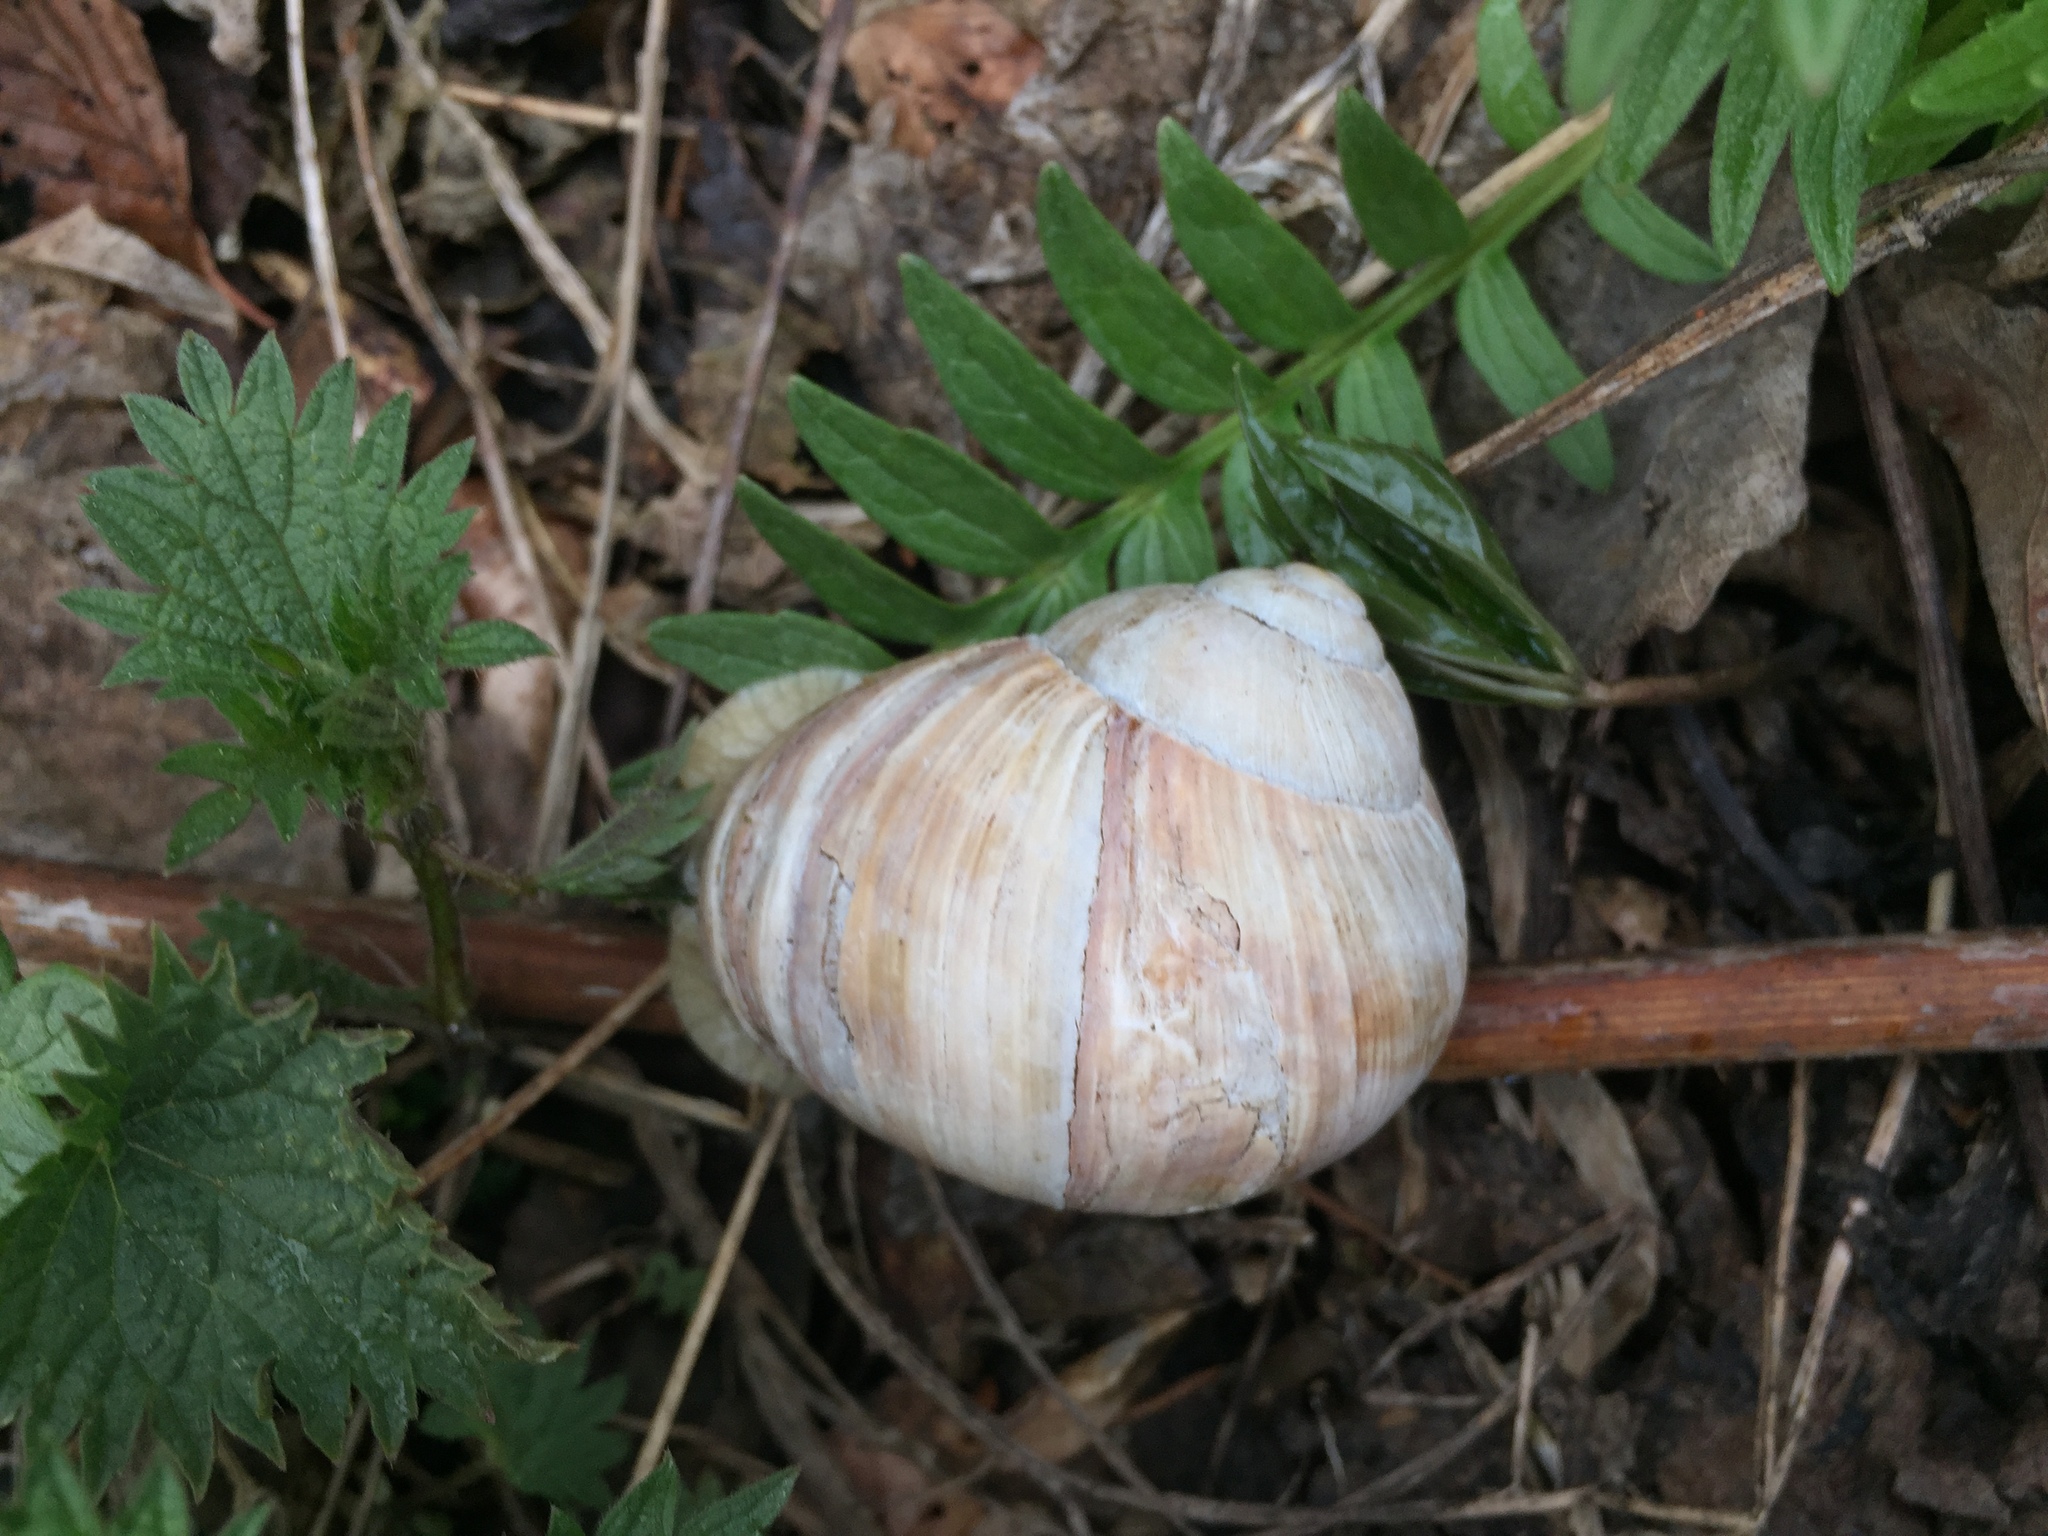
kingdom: Animalia
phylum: Mollusca
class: Gastropoda
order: Stylommatophora
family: Helicidae
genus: Helix
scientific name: Helix pomatia
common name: Roman snail
